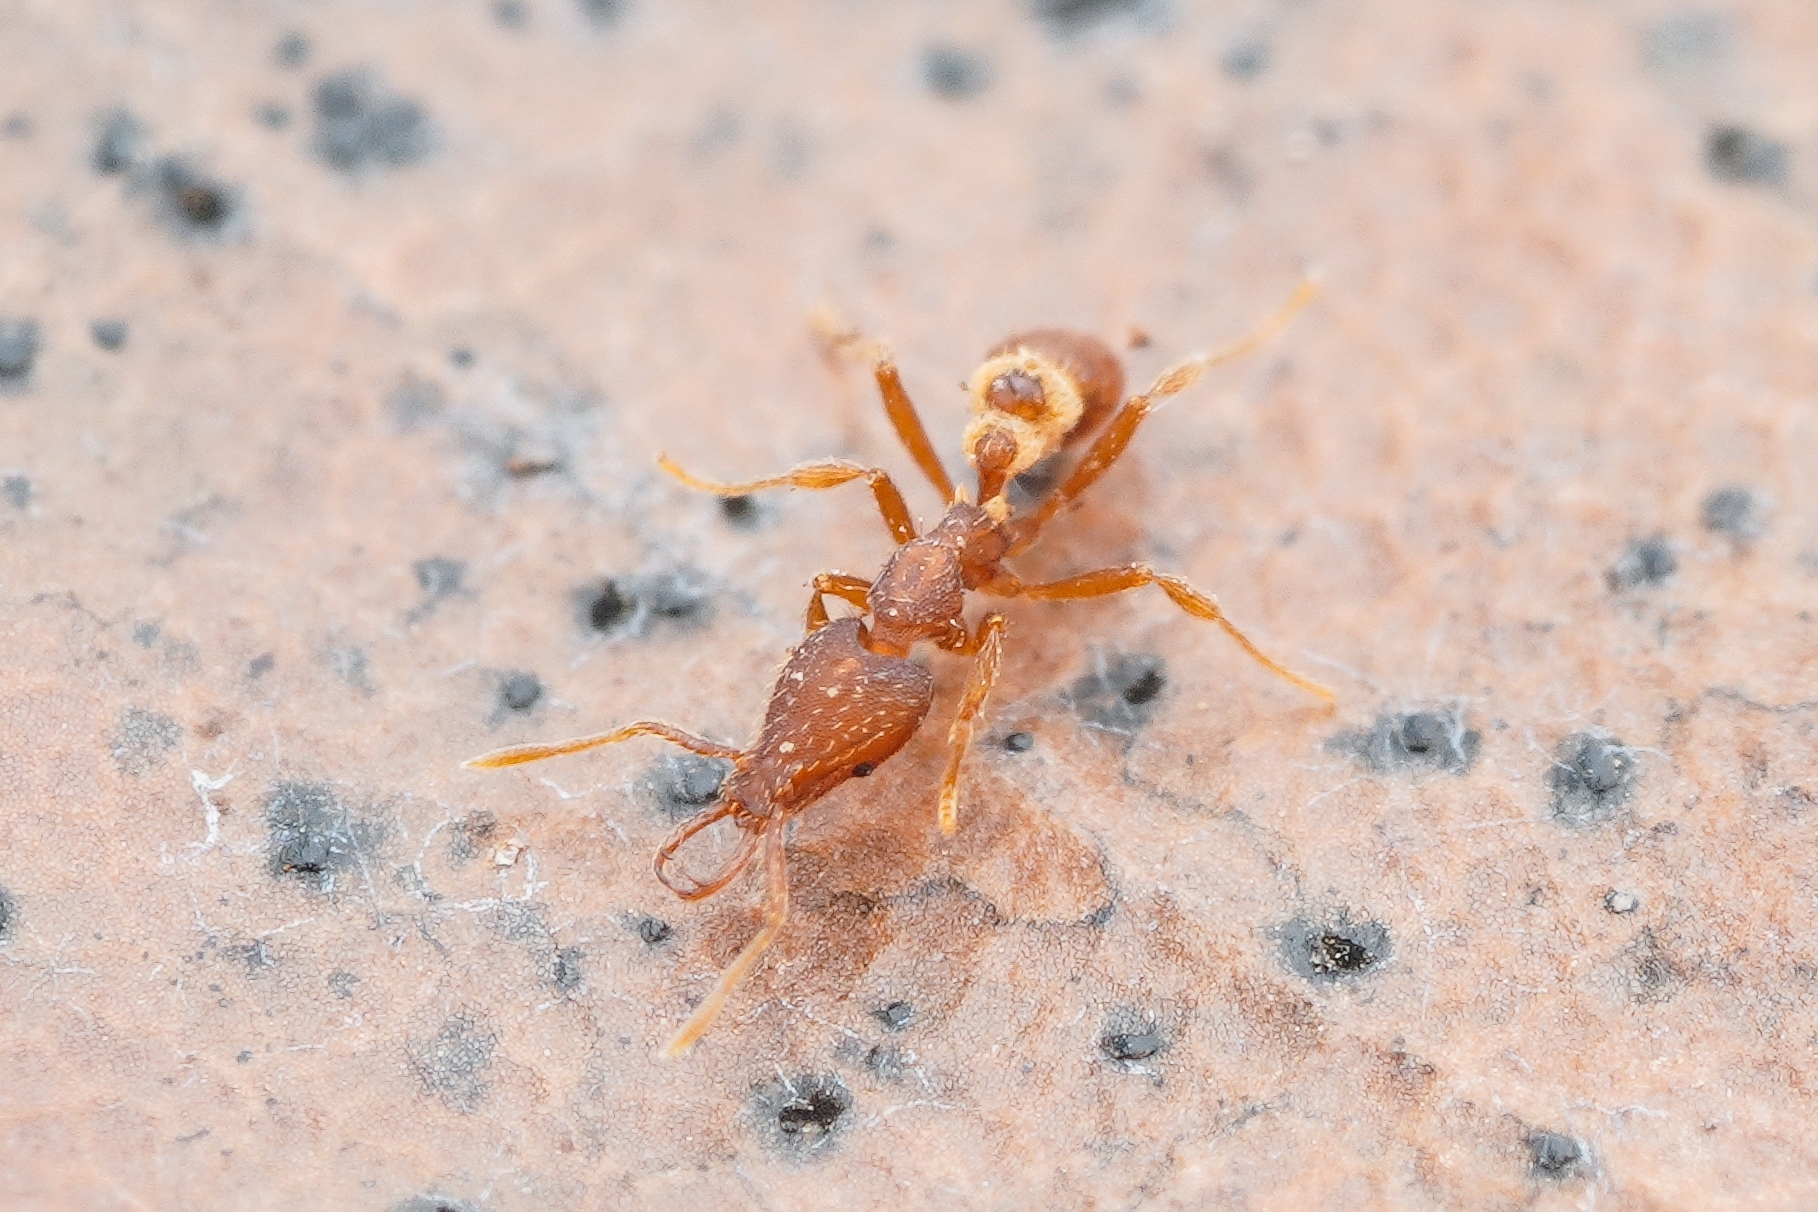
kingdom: Animalia
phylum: Arthropoda
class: Insecta
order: Hymenoptera
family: Formicidae
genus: Strumigenys
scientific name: Strumigenys kumadori
